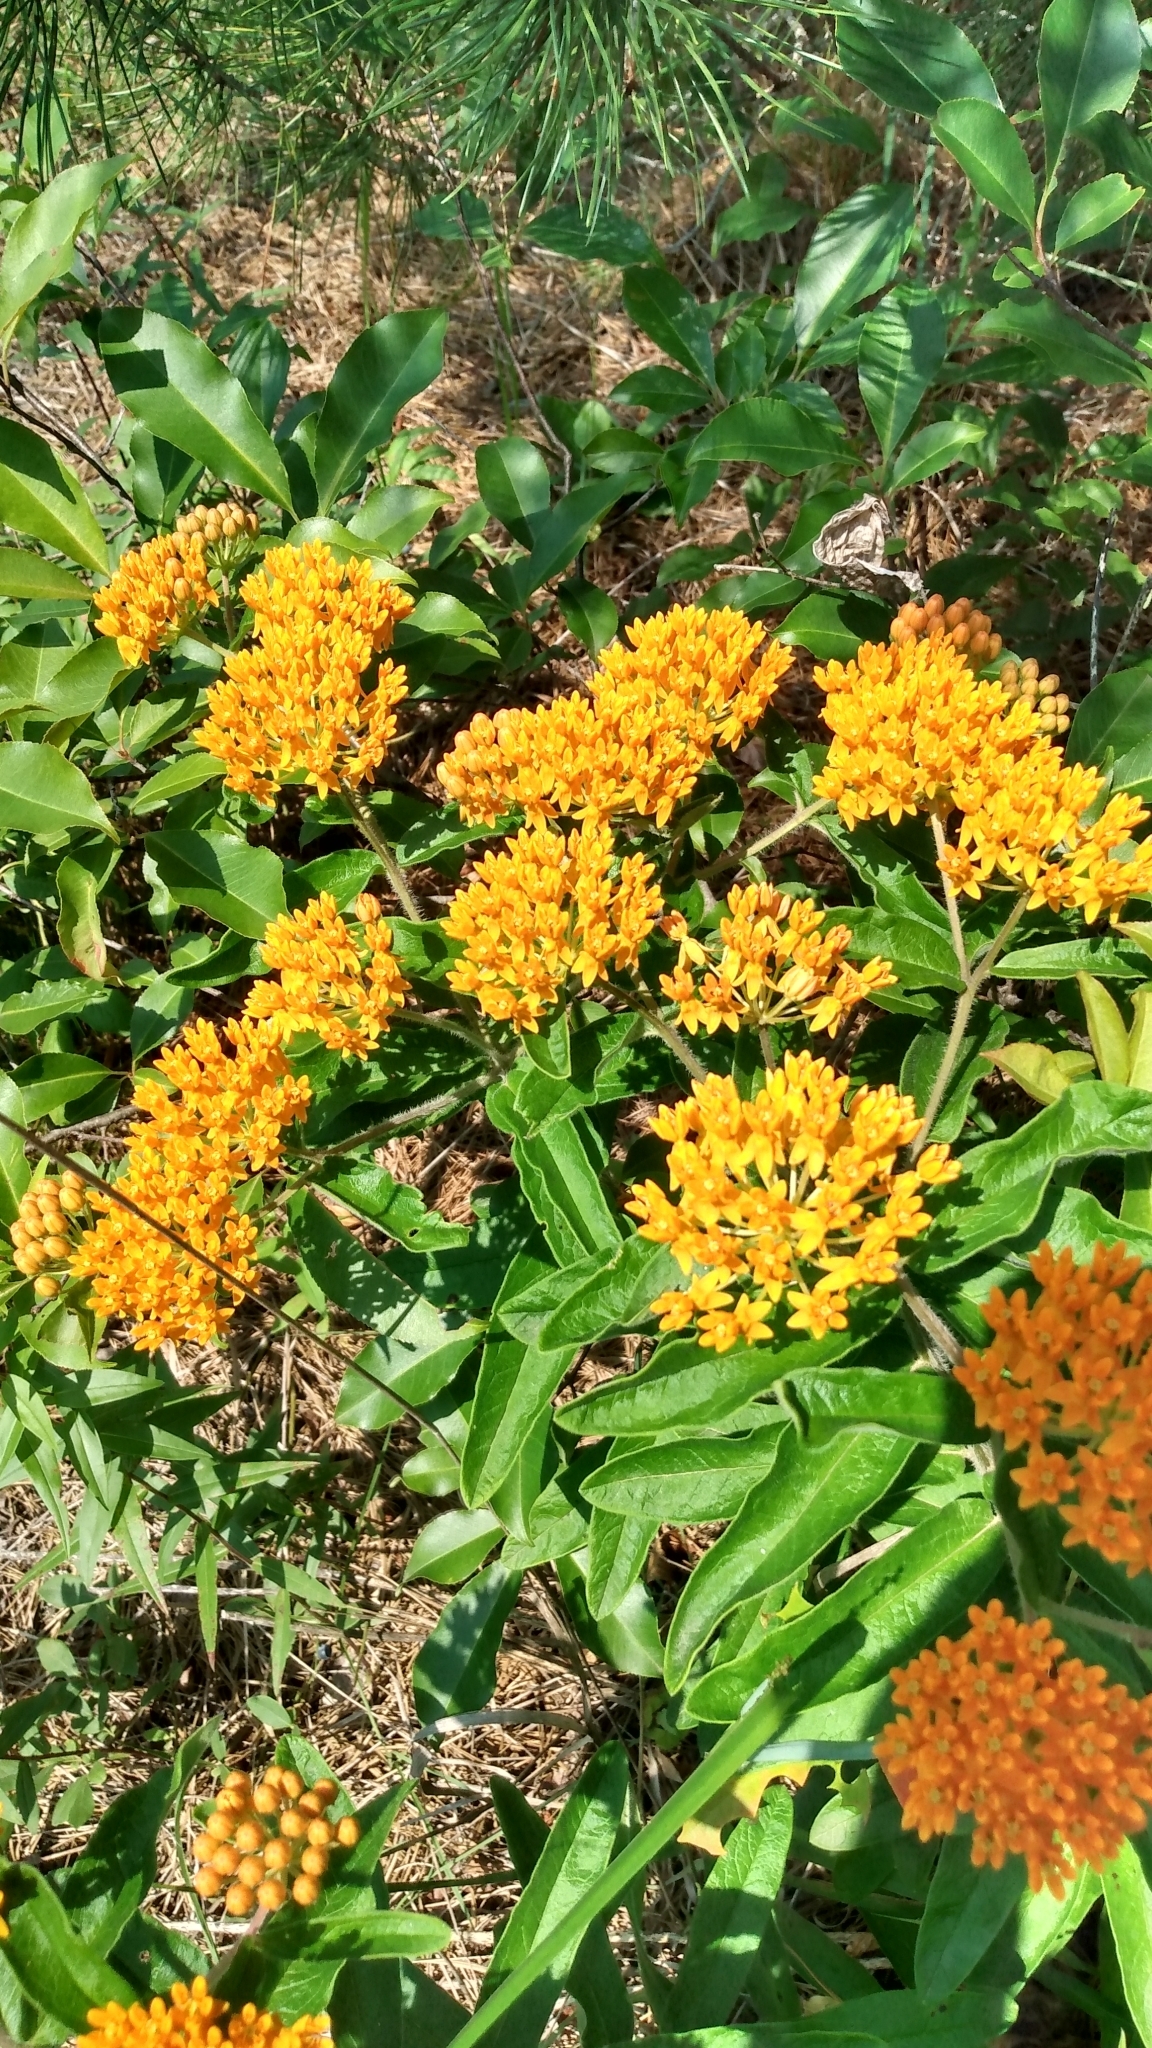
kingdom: Plantae
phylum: Tracheophyta
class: Magnoliopsida
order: Gentianales
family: Apocynaceae
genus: Asclepias
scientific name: Asclepias tuberosa
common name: Butterfly milkweed
